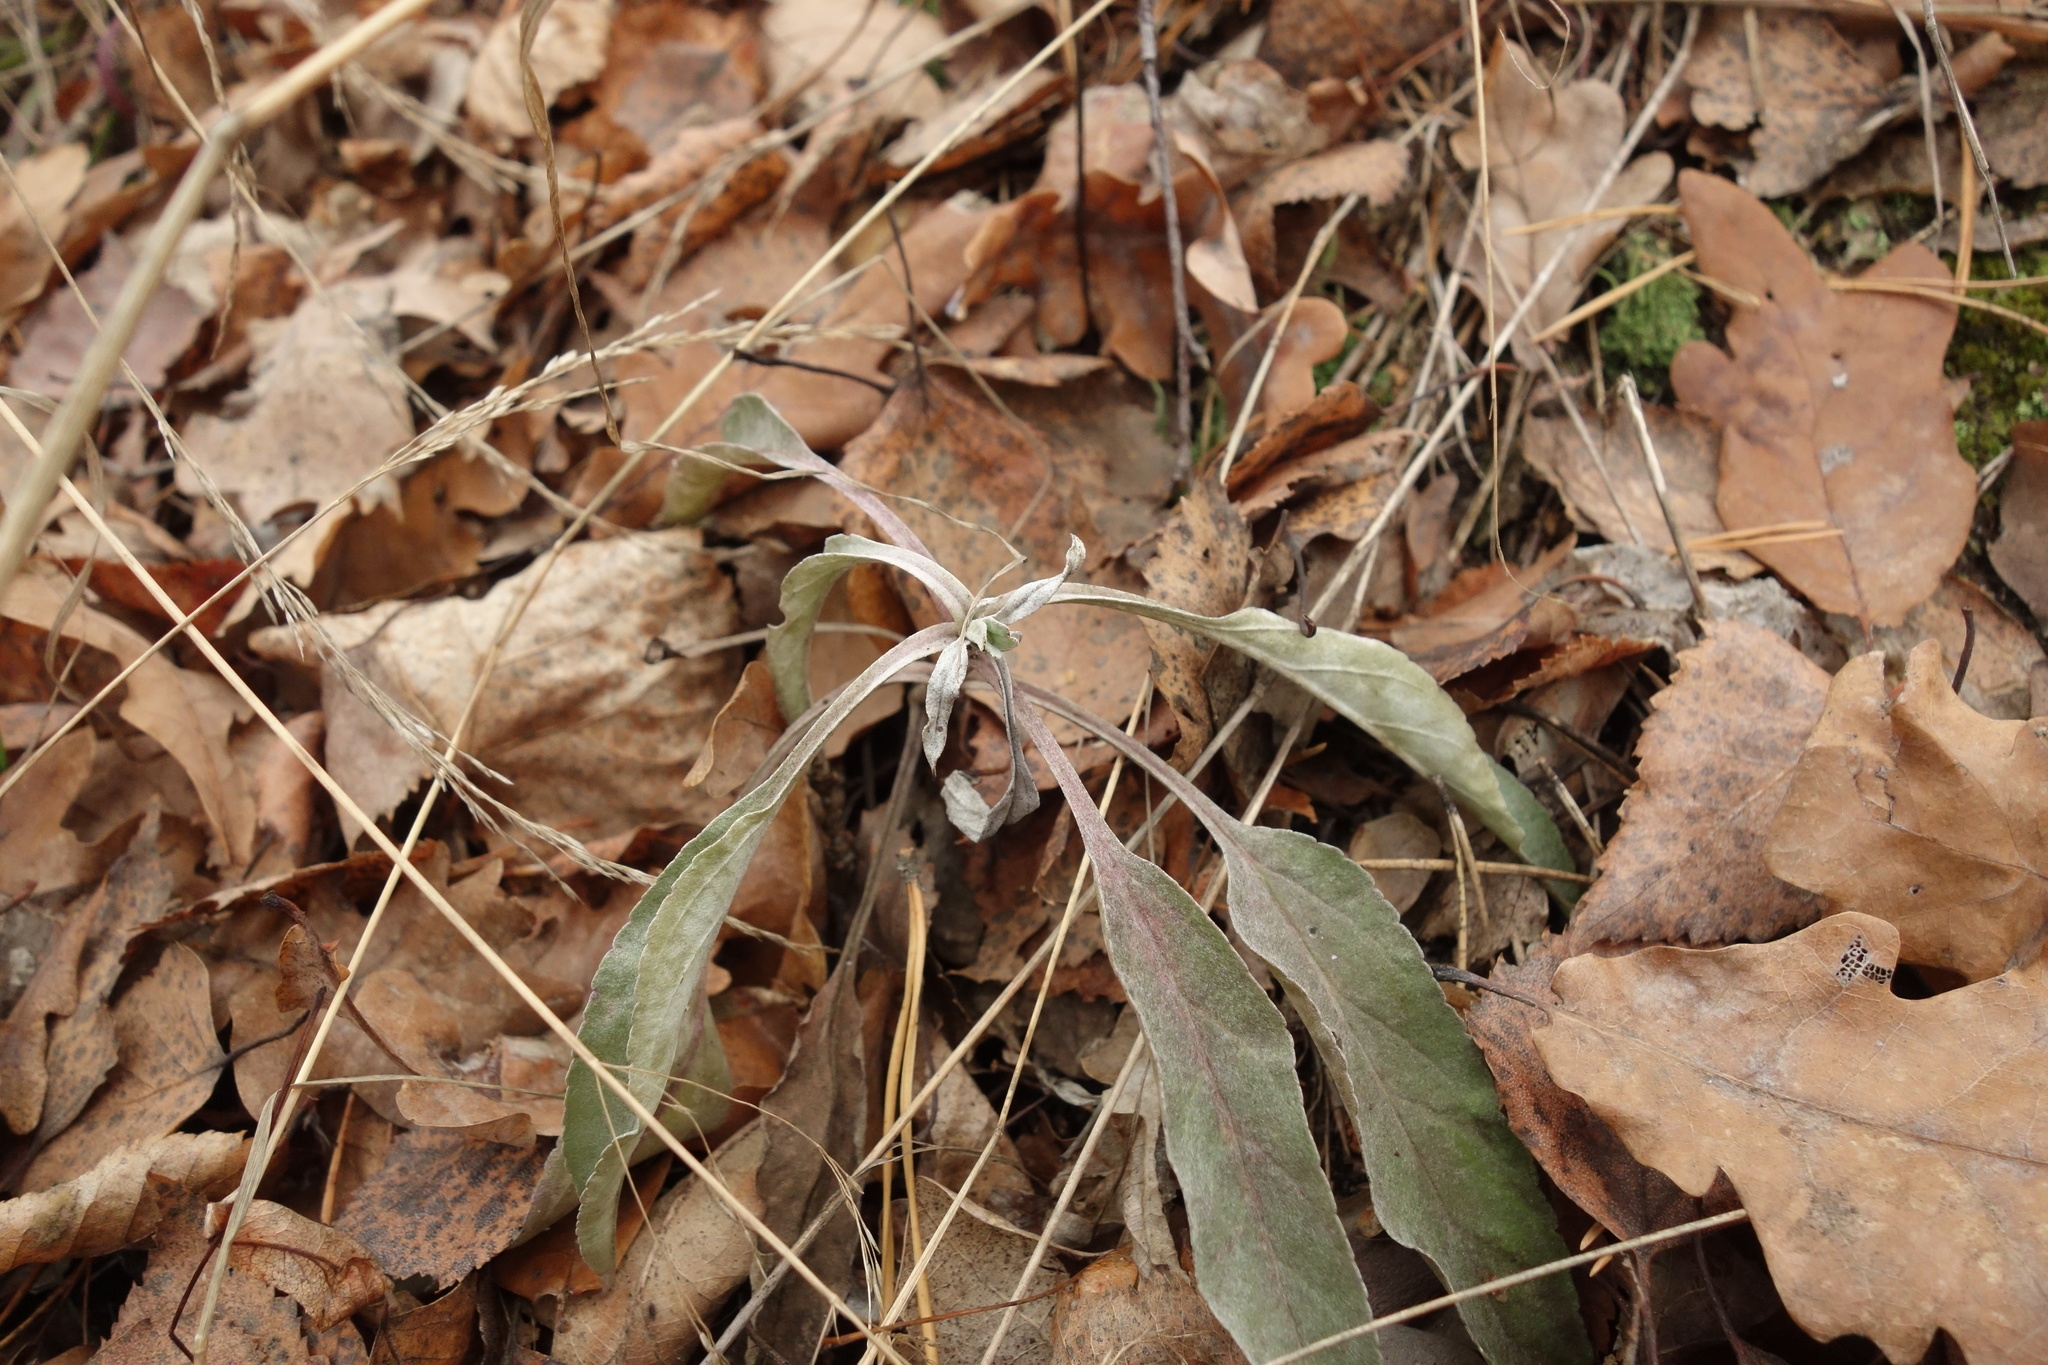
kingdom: Plantae
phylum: Tracheophyta
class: Magnoliopsida
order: Lamiales
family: Plantaginaceae
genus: Veronica
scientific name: Veronica incana
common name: Silver speedwell
